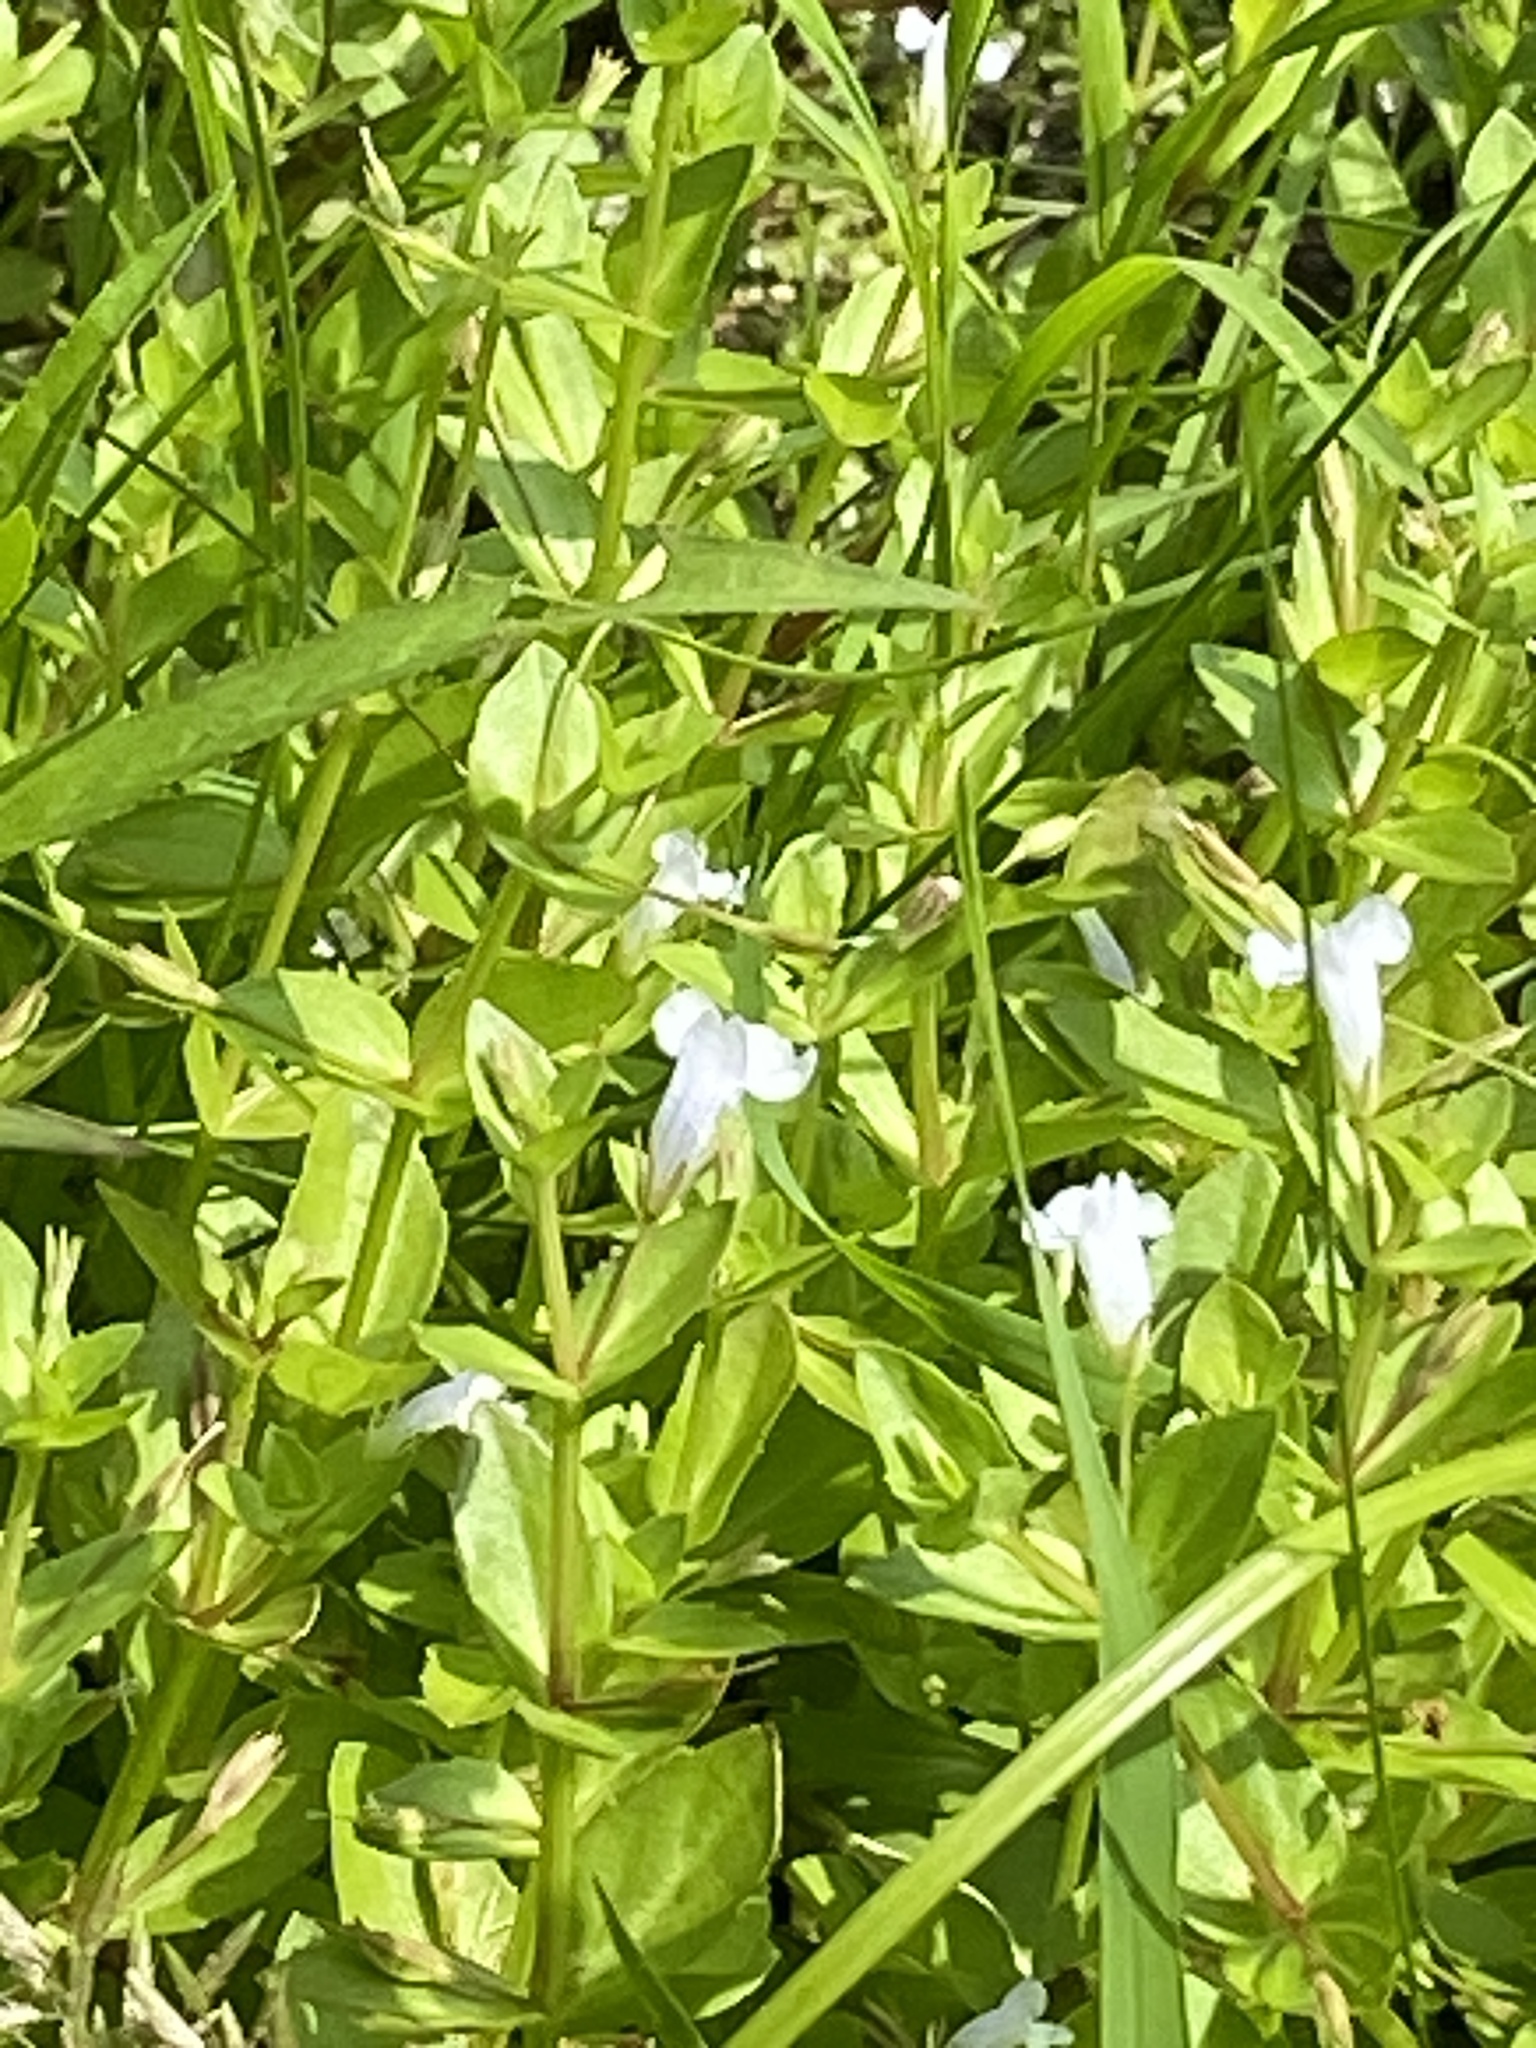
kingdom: Plantae
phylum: Tracheophyta
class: Magnoliopsida
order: Lamiales
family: Linderniaceae
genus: Lindernia
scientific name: Lindernia dubia
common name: Annual false pimpernel
